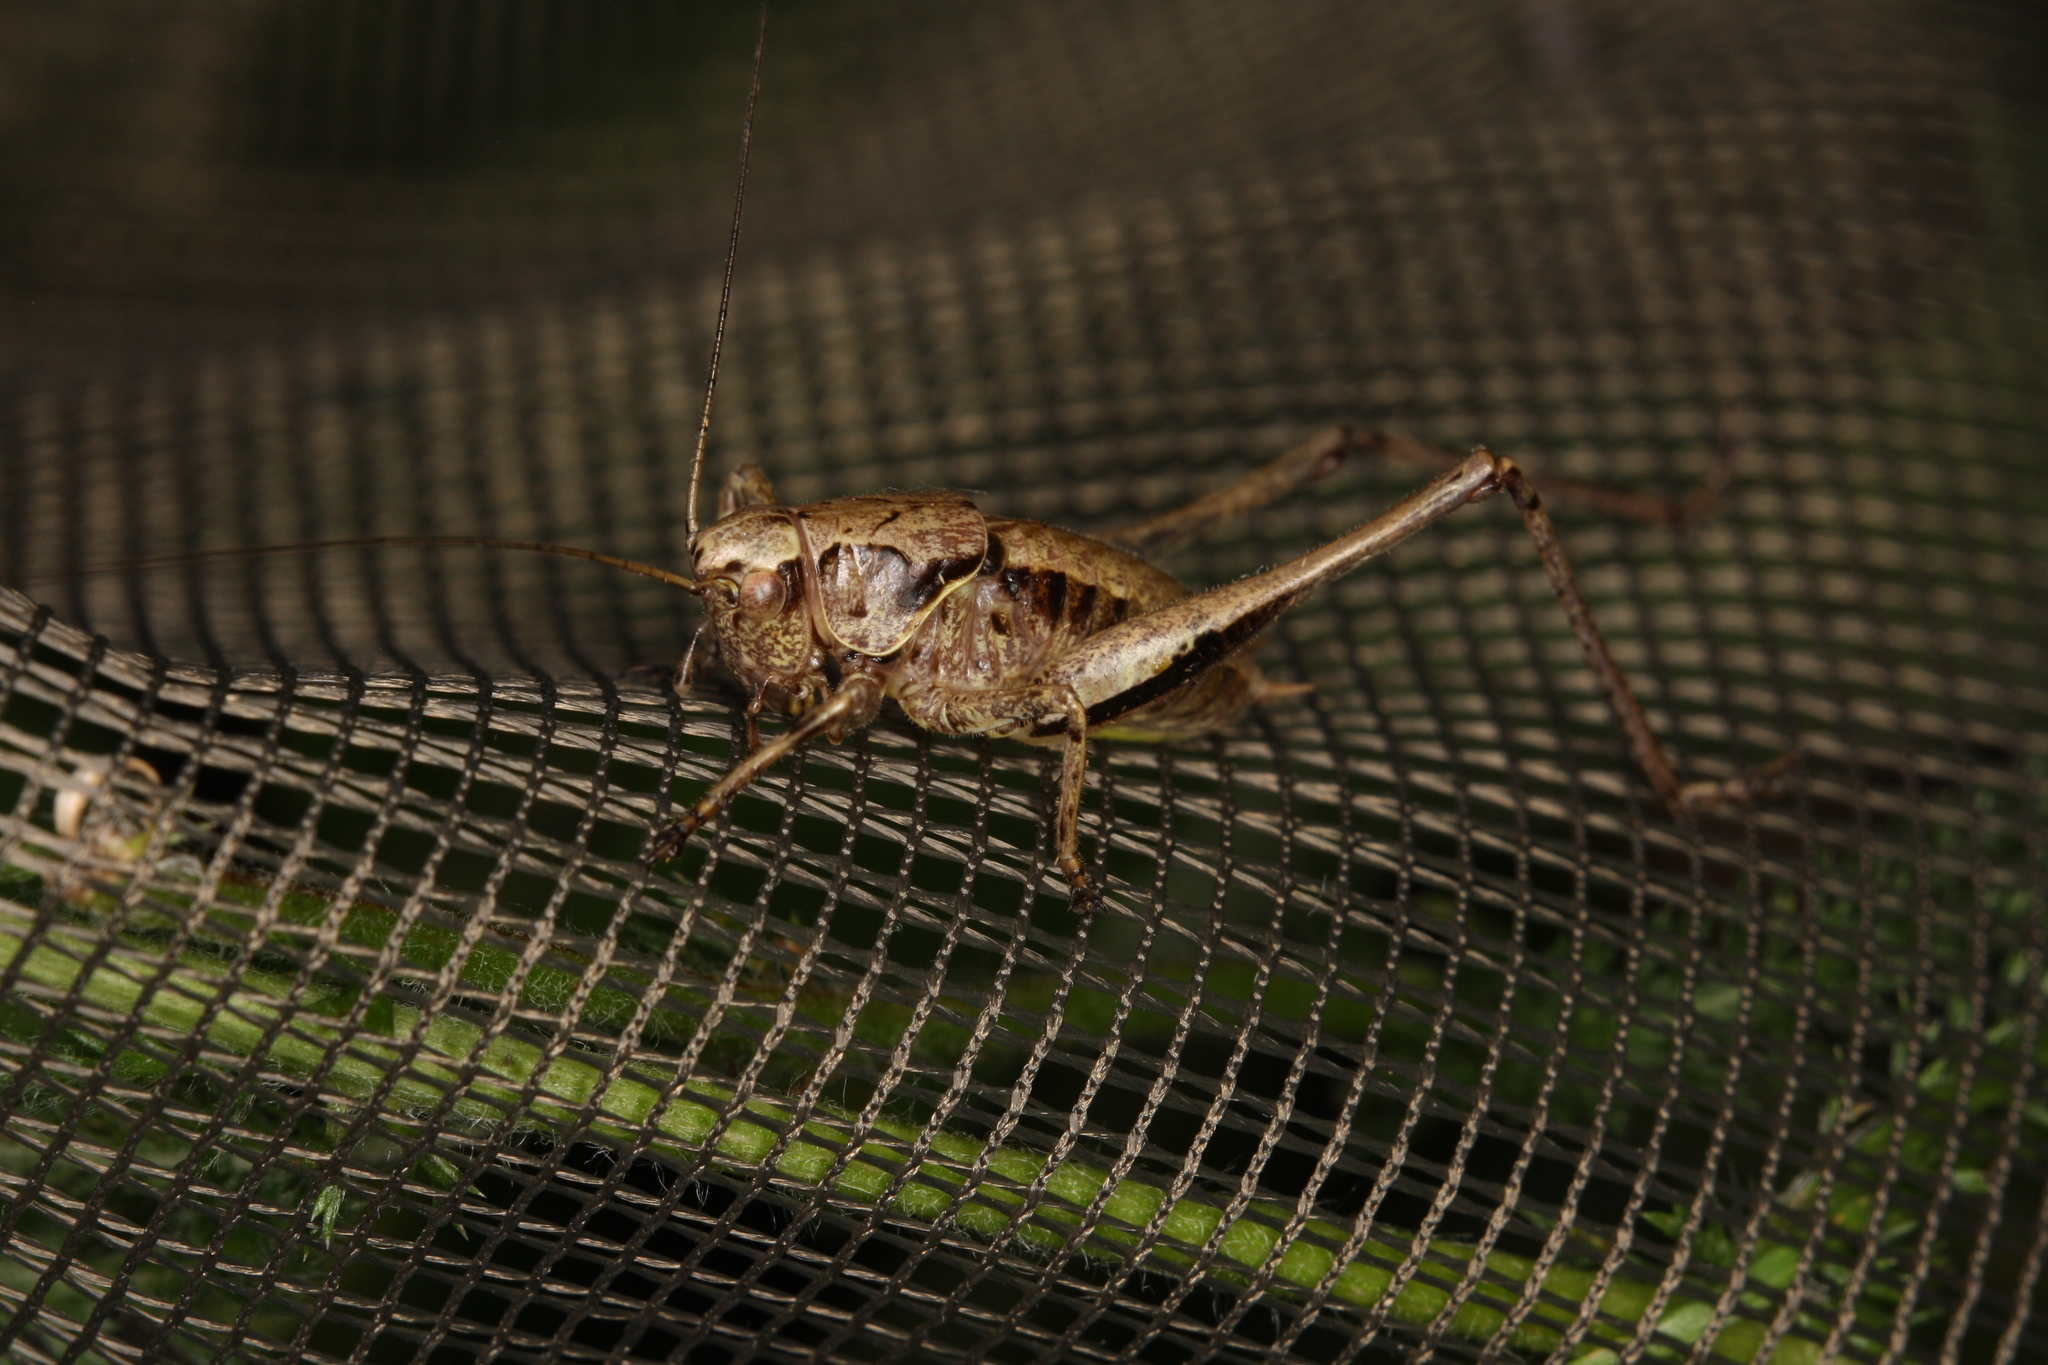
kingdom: Animalia
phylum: Arthropoda
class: Insecta
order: Orthoptera
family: Tettigoniidae
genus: Pholidoptera
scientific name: Pholidoptera griseoaptera
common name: Dark bush-cricket
